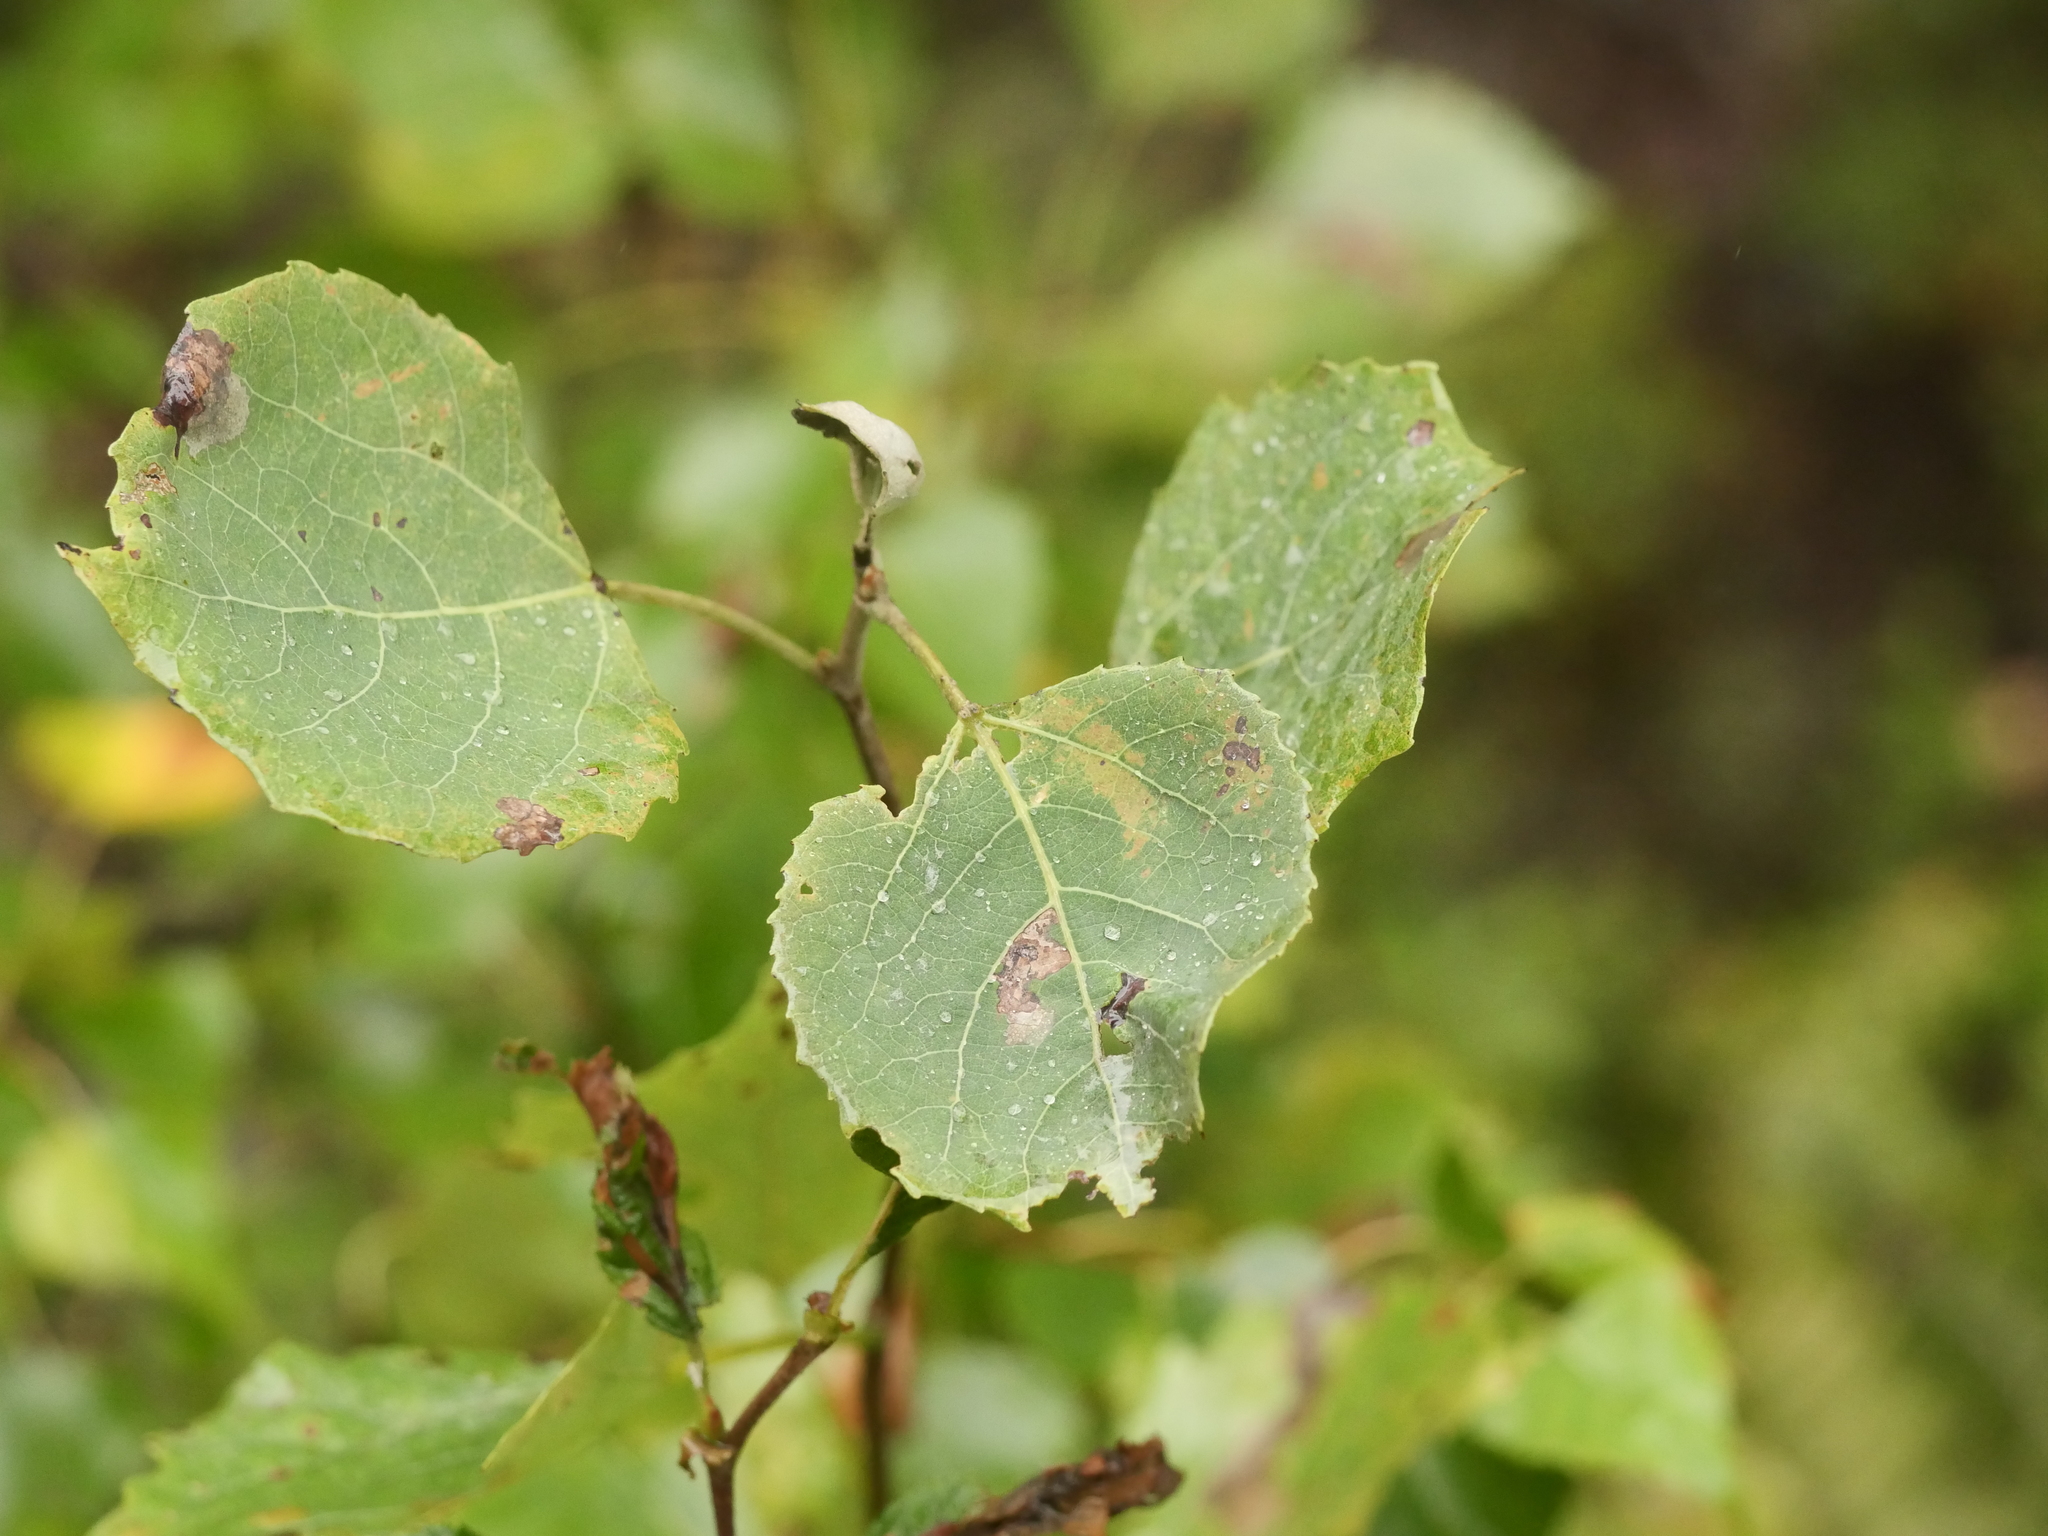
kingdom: Plantae
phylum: Tracheophyta
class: Magnoliopsida
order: Malpighiales
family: Salicaceae
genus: Populus
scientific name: Populus tremuloides
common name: Quaking aspen
